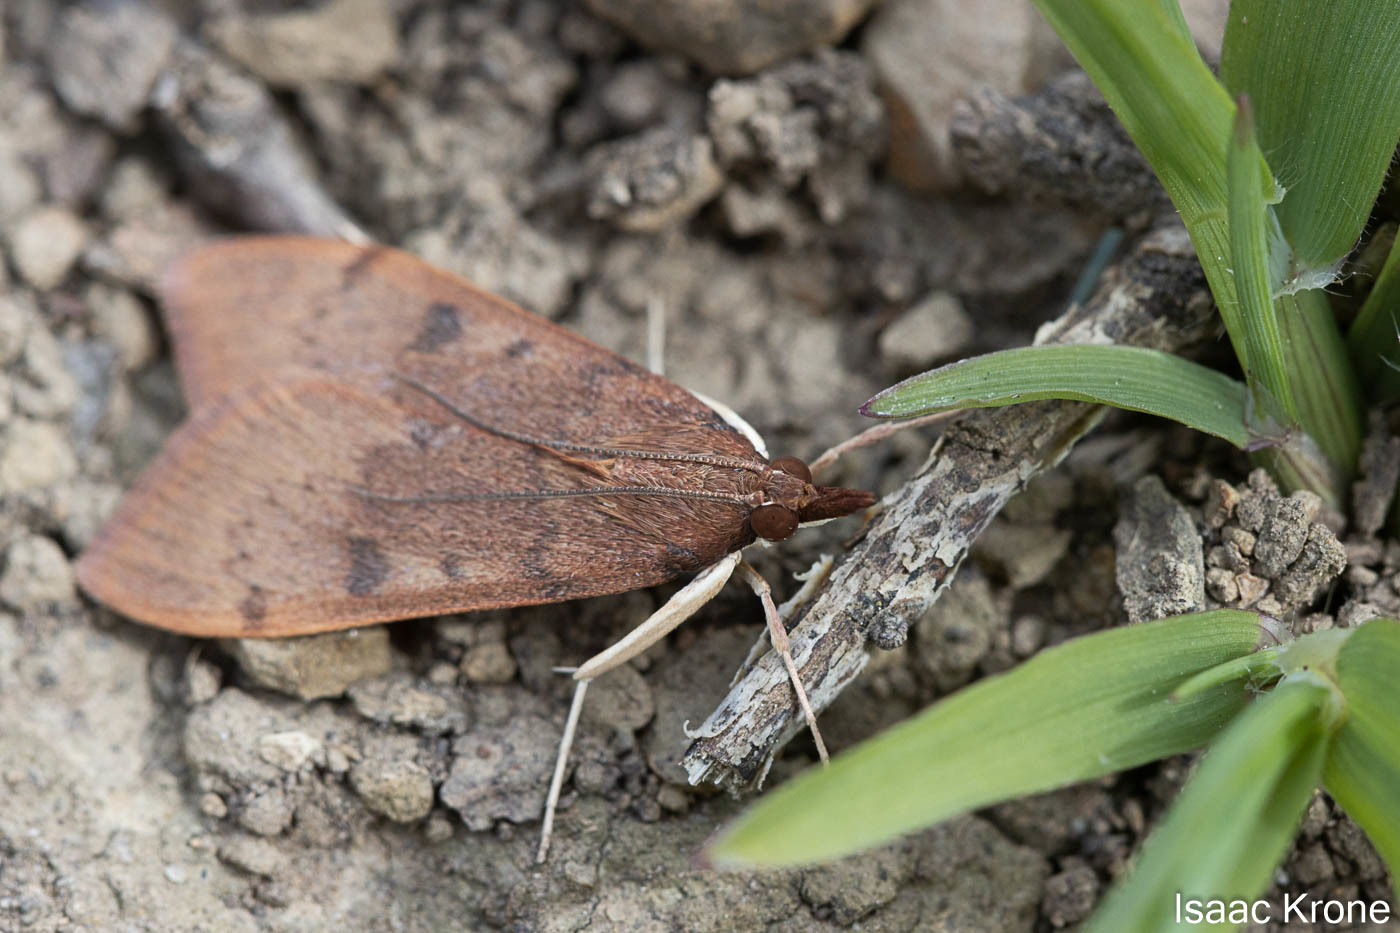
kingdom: Animalia
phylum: Arthropoda
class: Insecta
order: Lepidoptera
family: Crambidae
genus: Uresiphita
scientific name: Uresiphita reversalis
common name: Genista broom moth
